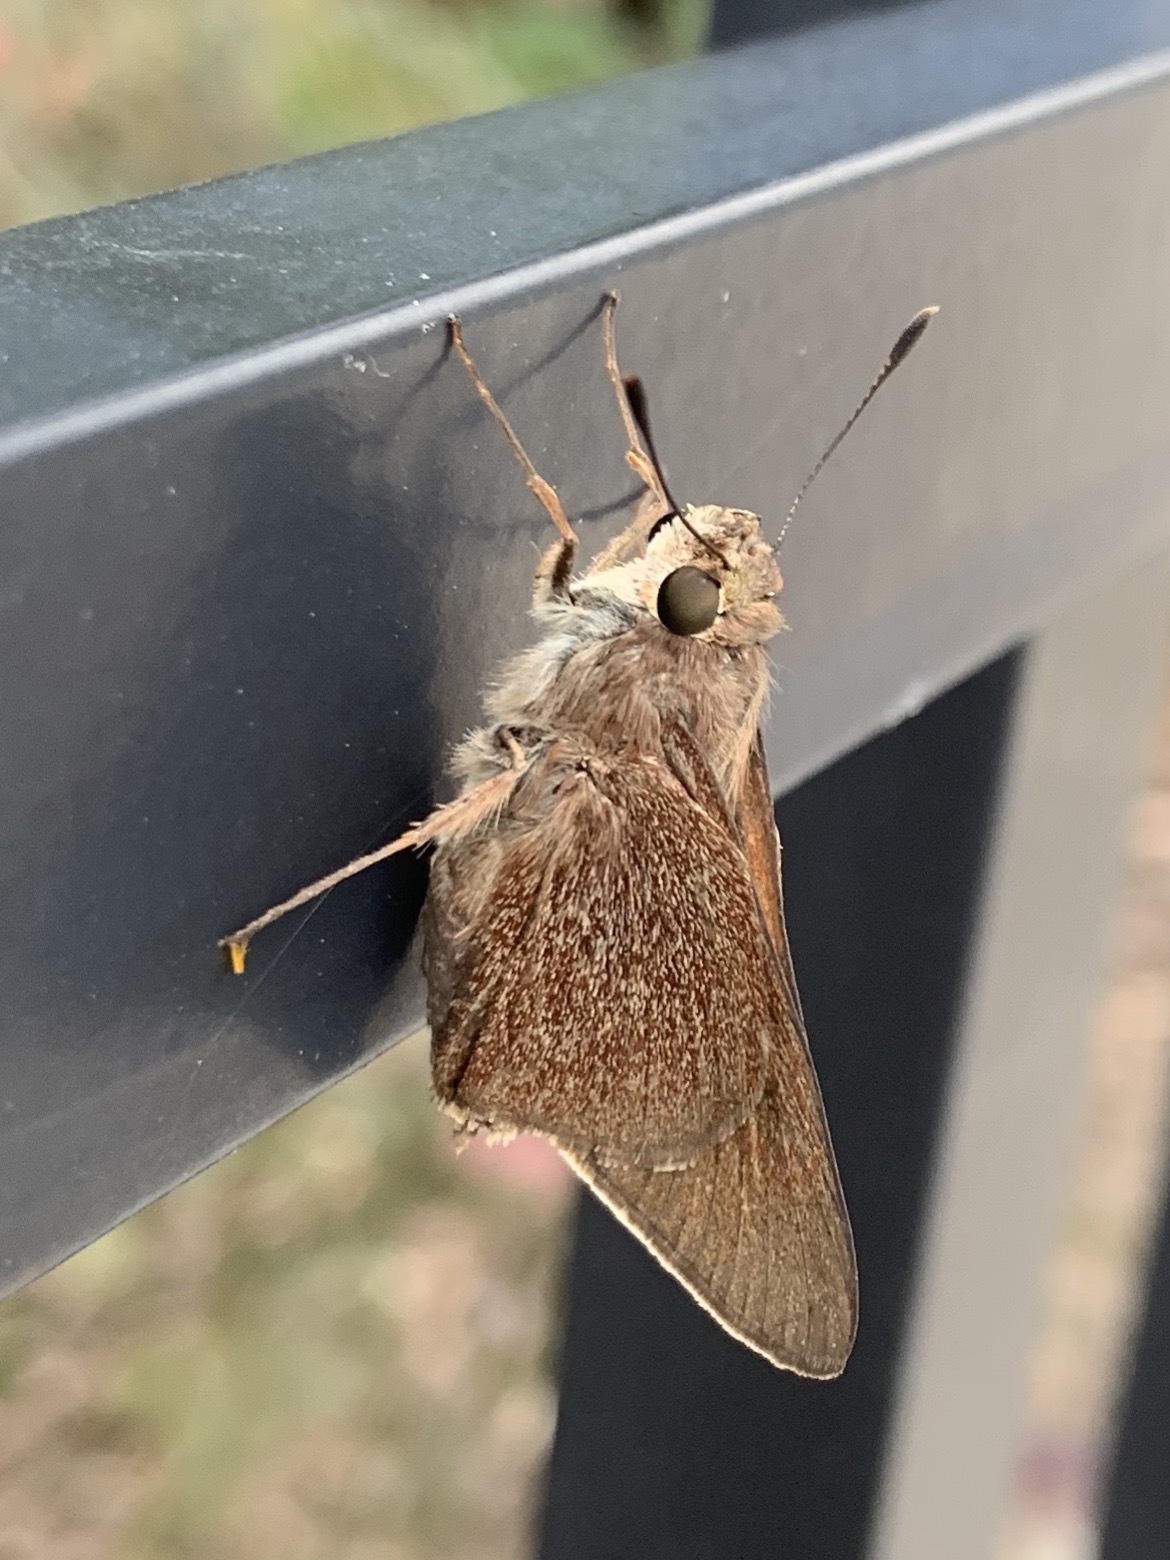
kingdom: Animalia
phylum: Arthropoda
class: Insecta
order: Lepidoptera
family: Hesperiidae
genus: Asbolis
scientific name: Asbolis capucinus
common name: Monk skipper
